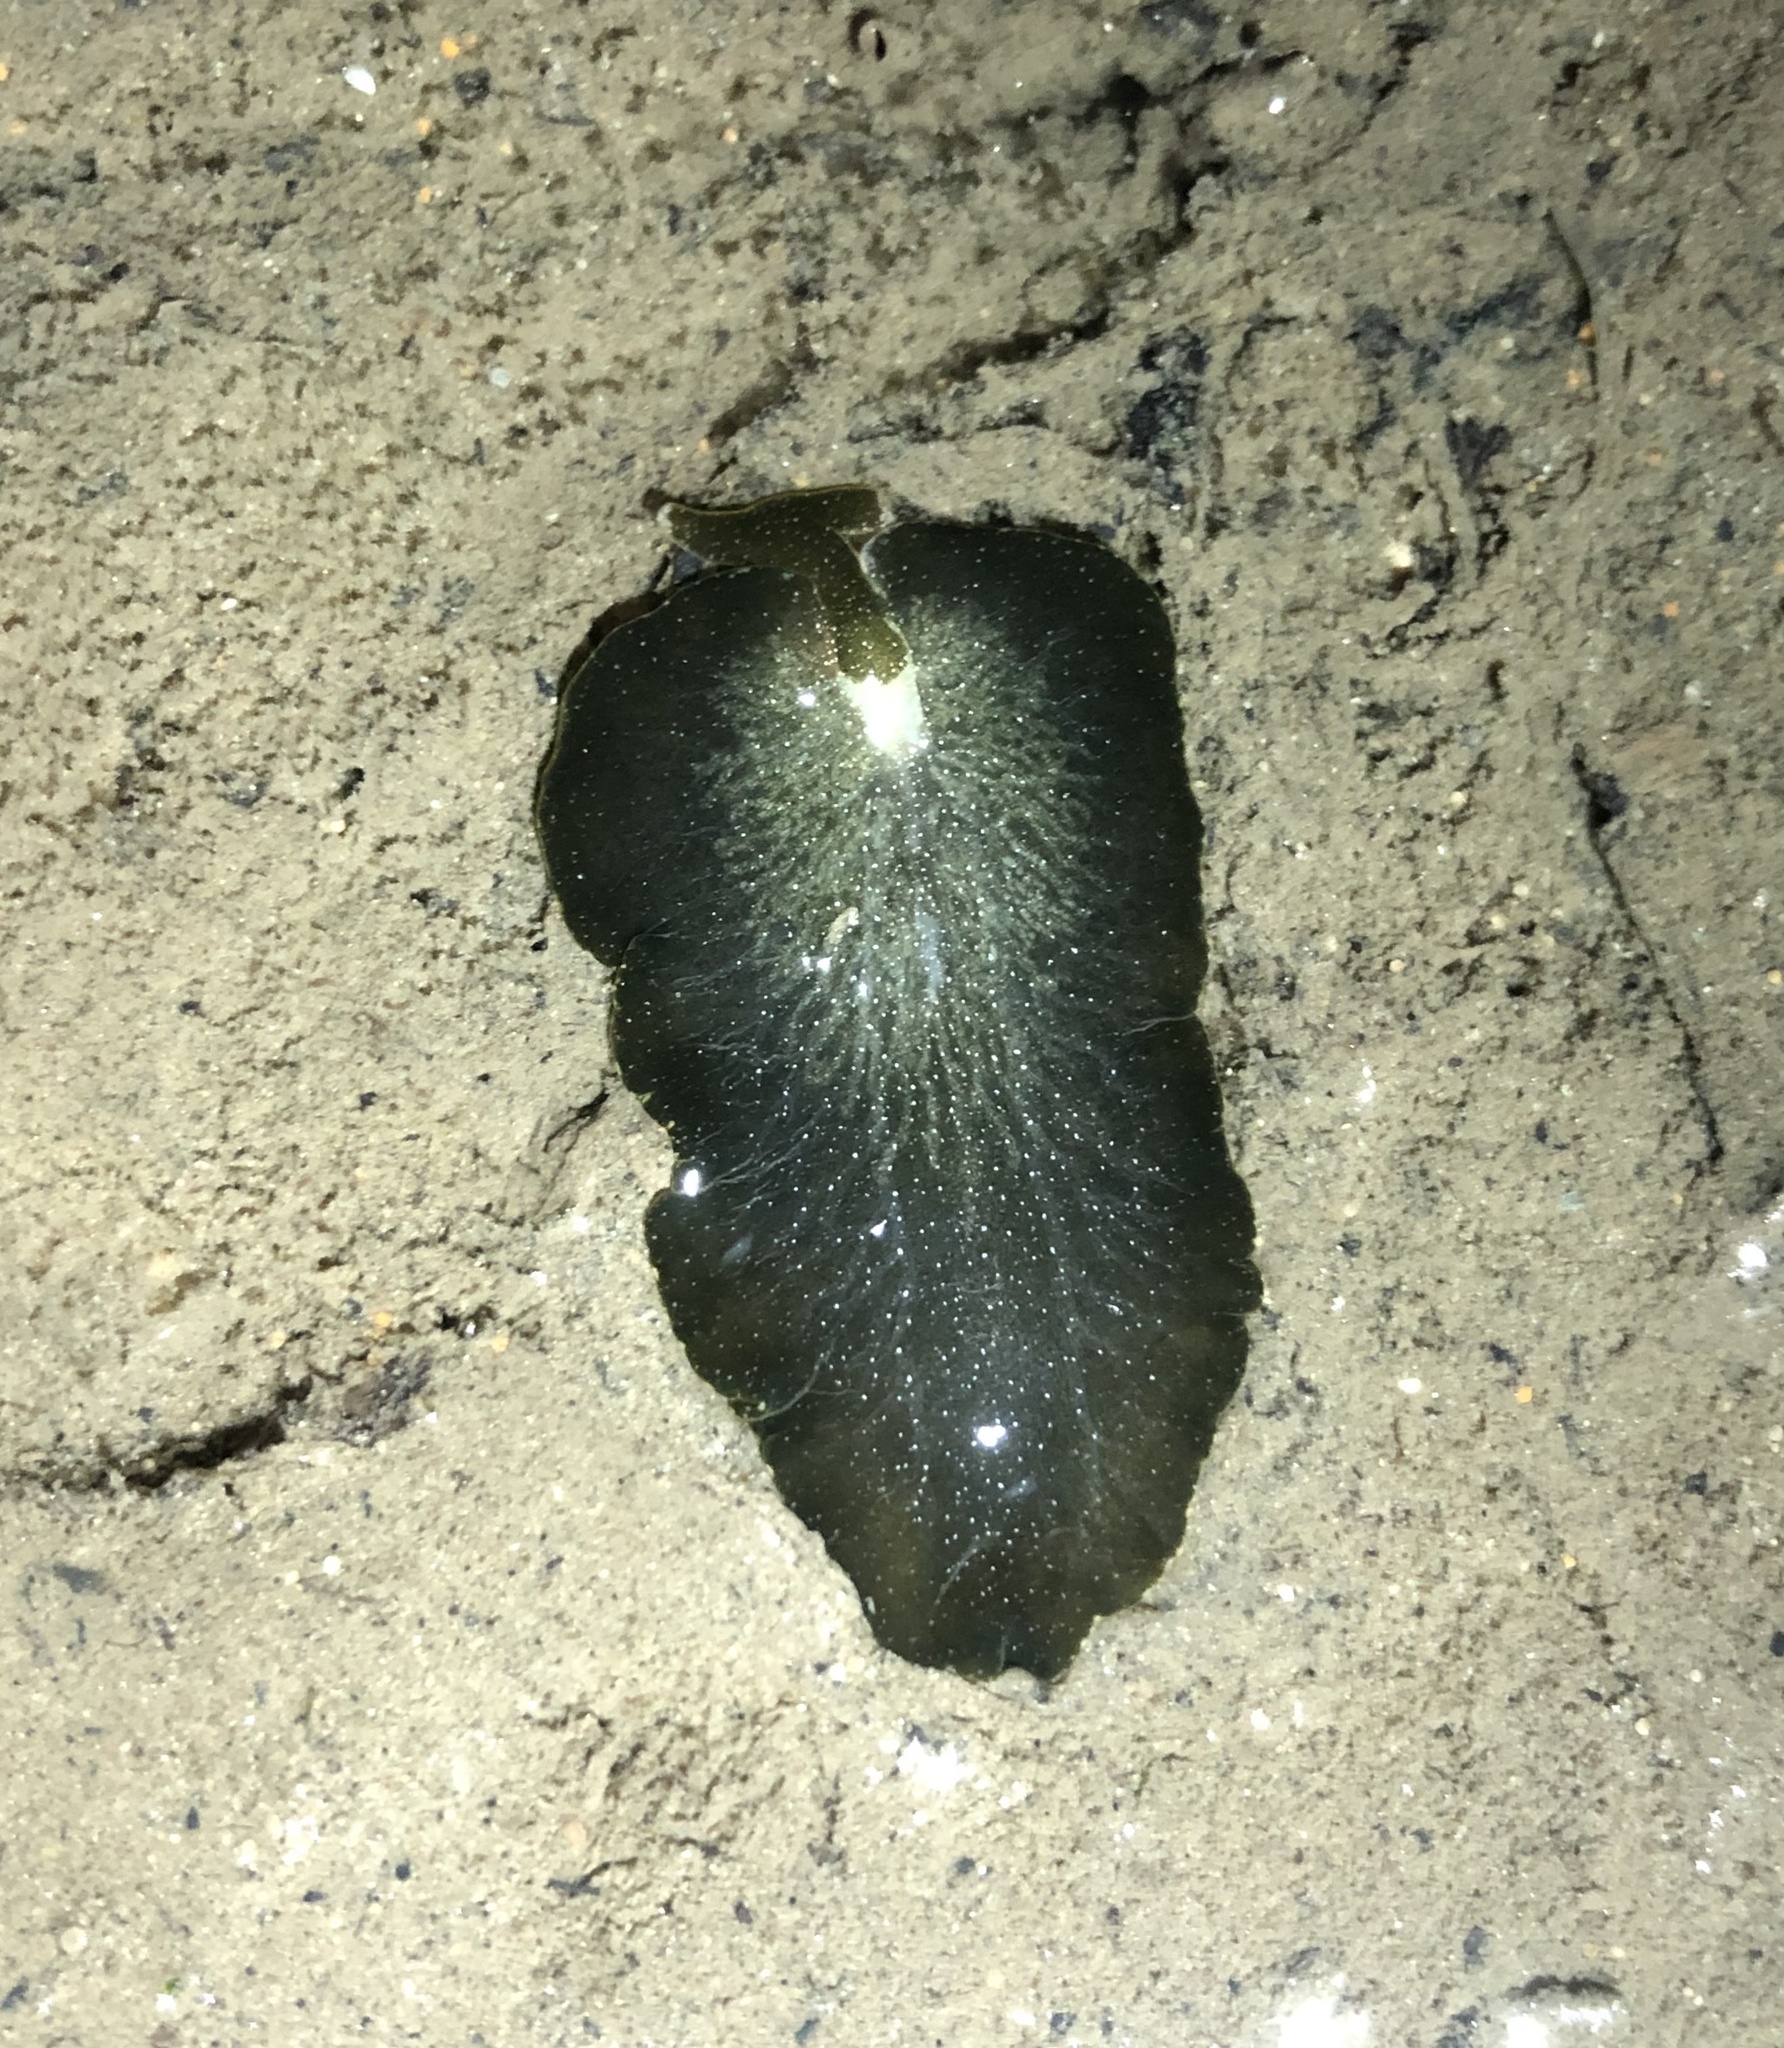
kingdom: Animalia
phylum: Mollusca
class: Gastropoda
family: Plakobranchidae
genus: Elysia
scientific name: Elysia hedgpethi
